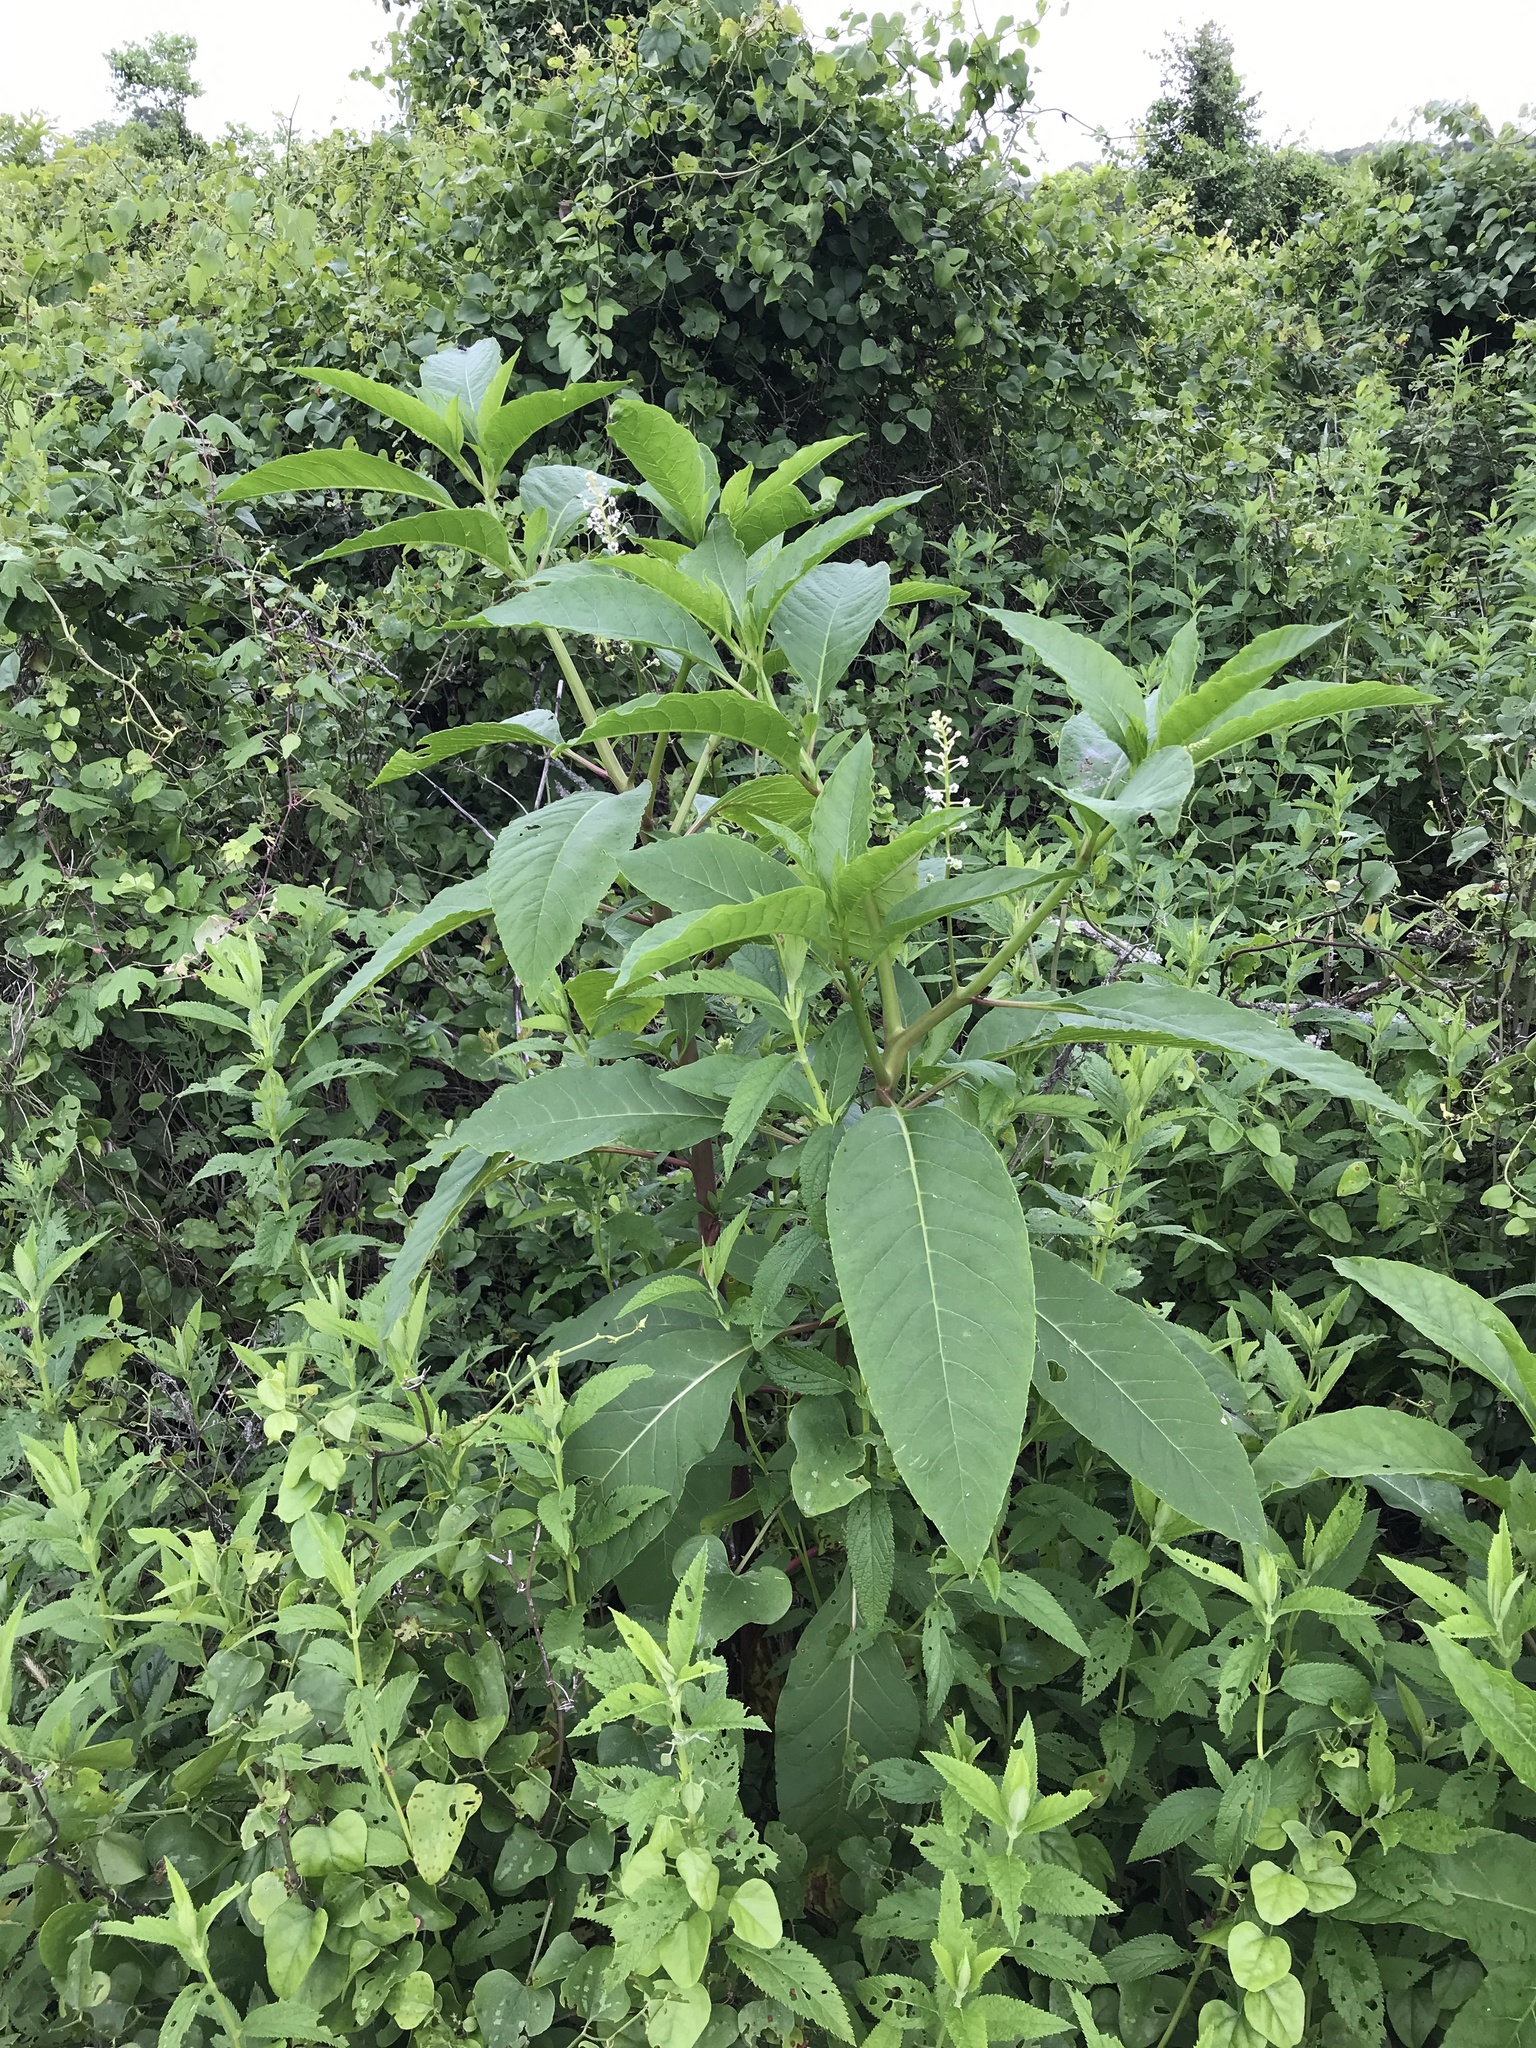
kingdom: Plantae
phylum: Tracheophyta
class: Magnoliopsida
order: Caryophyllales
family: Phytolaccaceae
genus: Phytolacca
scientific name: Phytolacca americana
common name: American pokeweed
